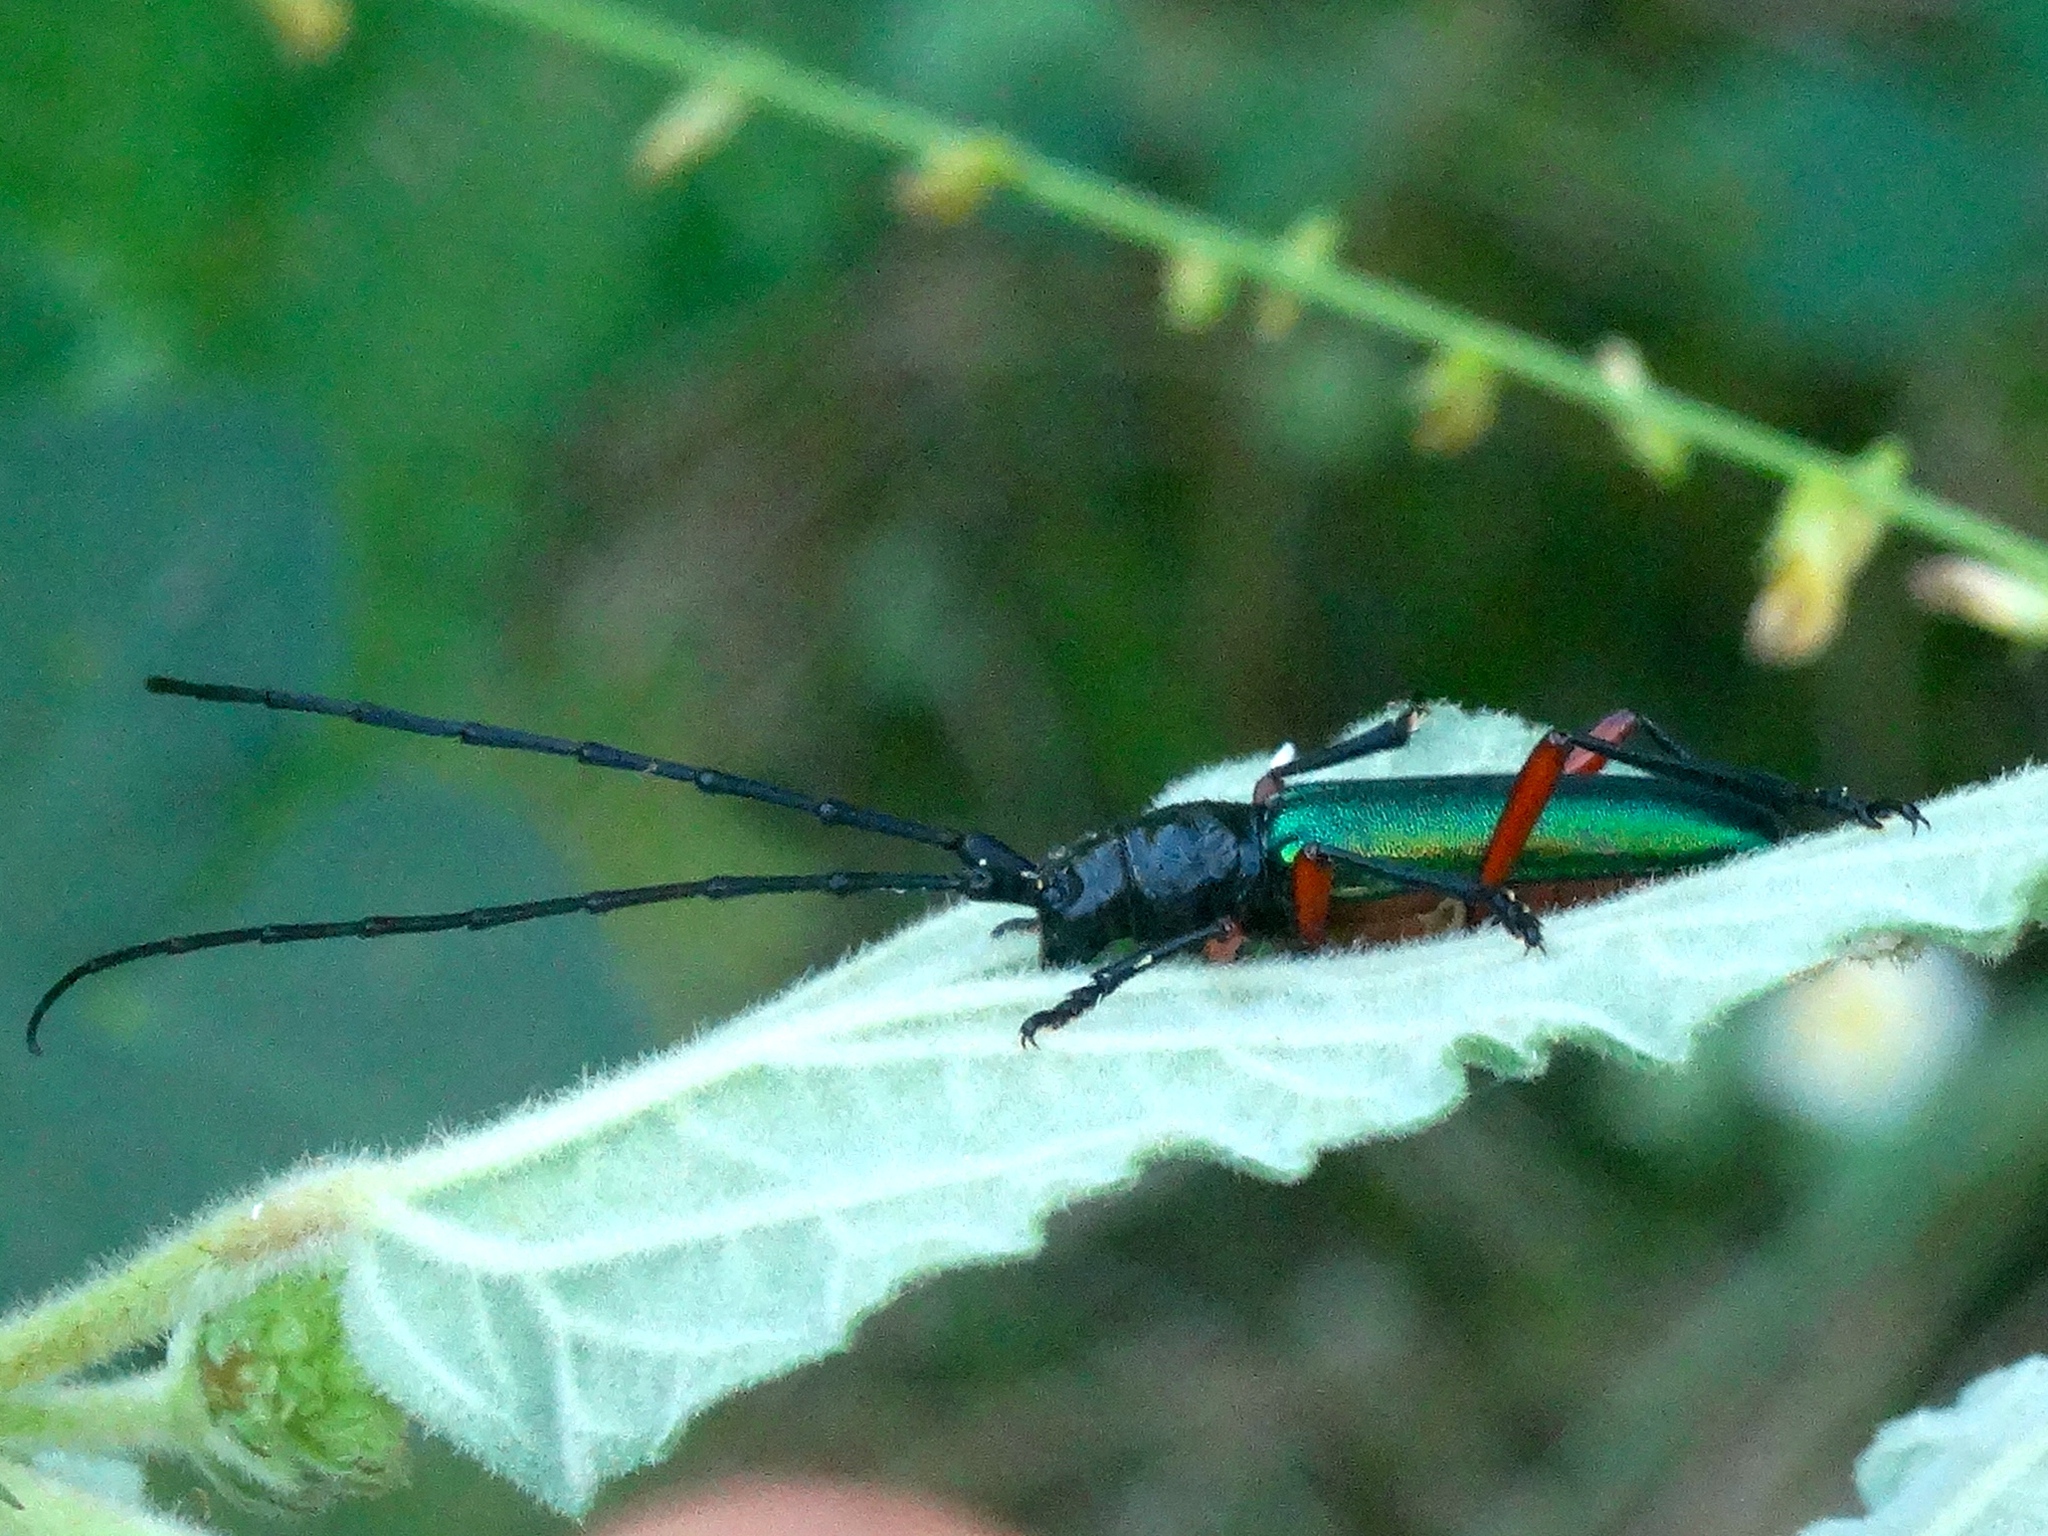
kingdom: Animalia
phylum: Arthropoda
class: Insecta
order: Coleoptera
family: Cerambycidae
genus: Deltaspis
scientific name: Deltaspis rubriventris
